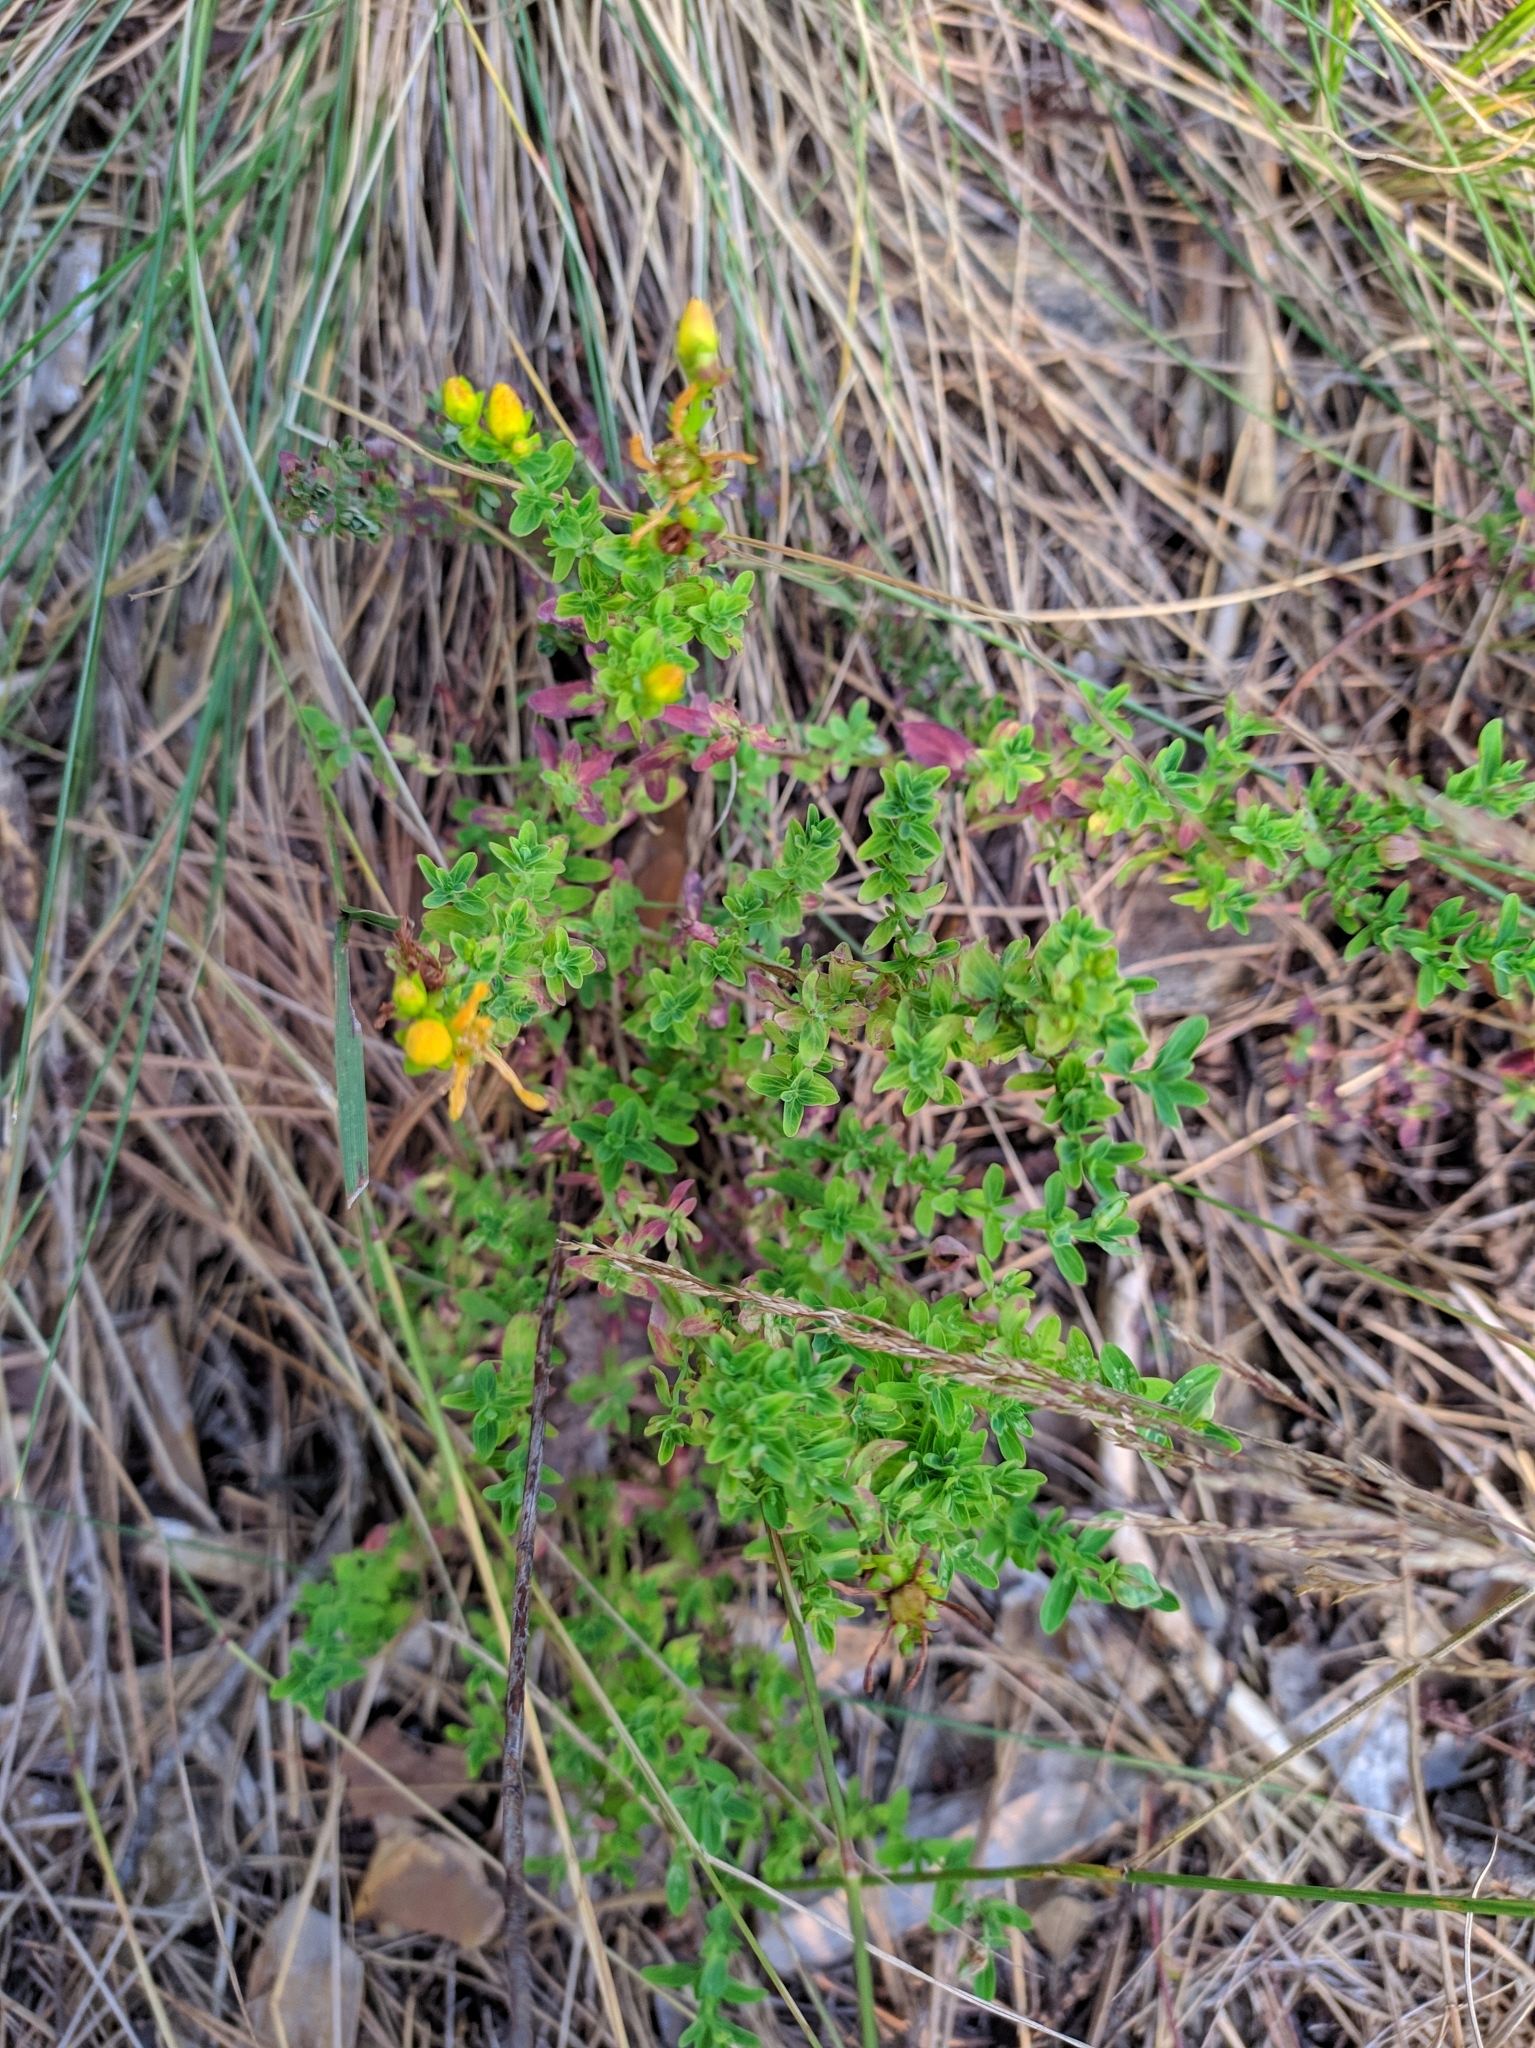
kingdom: Plantae
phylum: Tracheophyta
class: Magnoliopsida
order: Malpighiales
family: Hypericaceae
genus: Hypericum
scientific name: Hypericum perforatum
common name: Common st. johnswort
